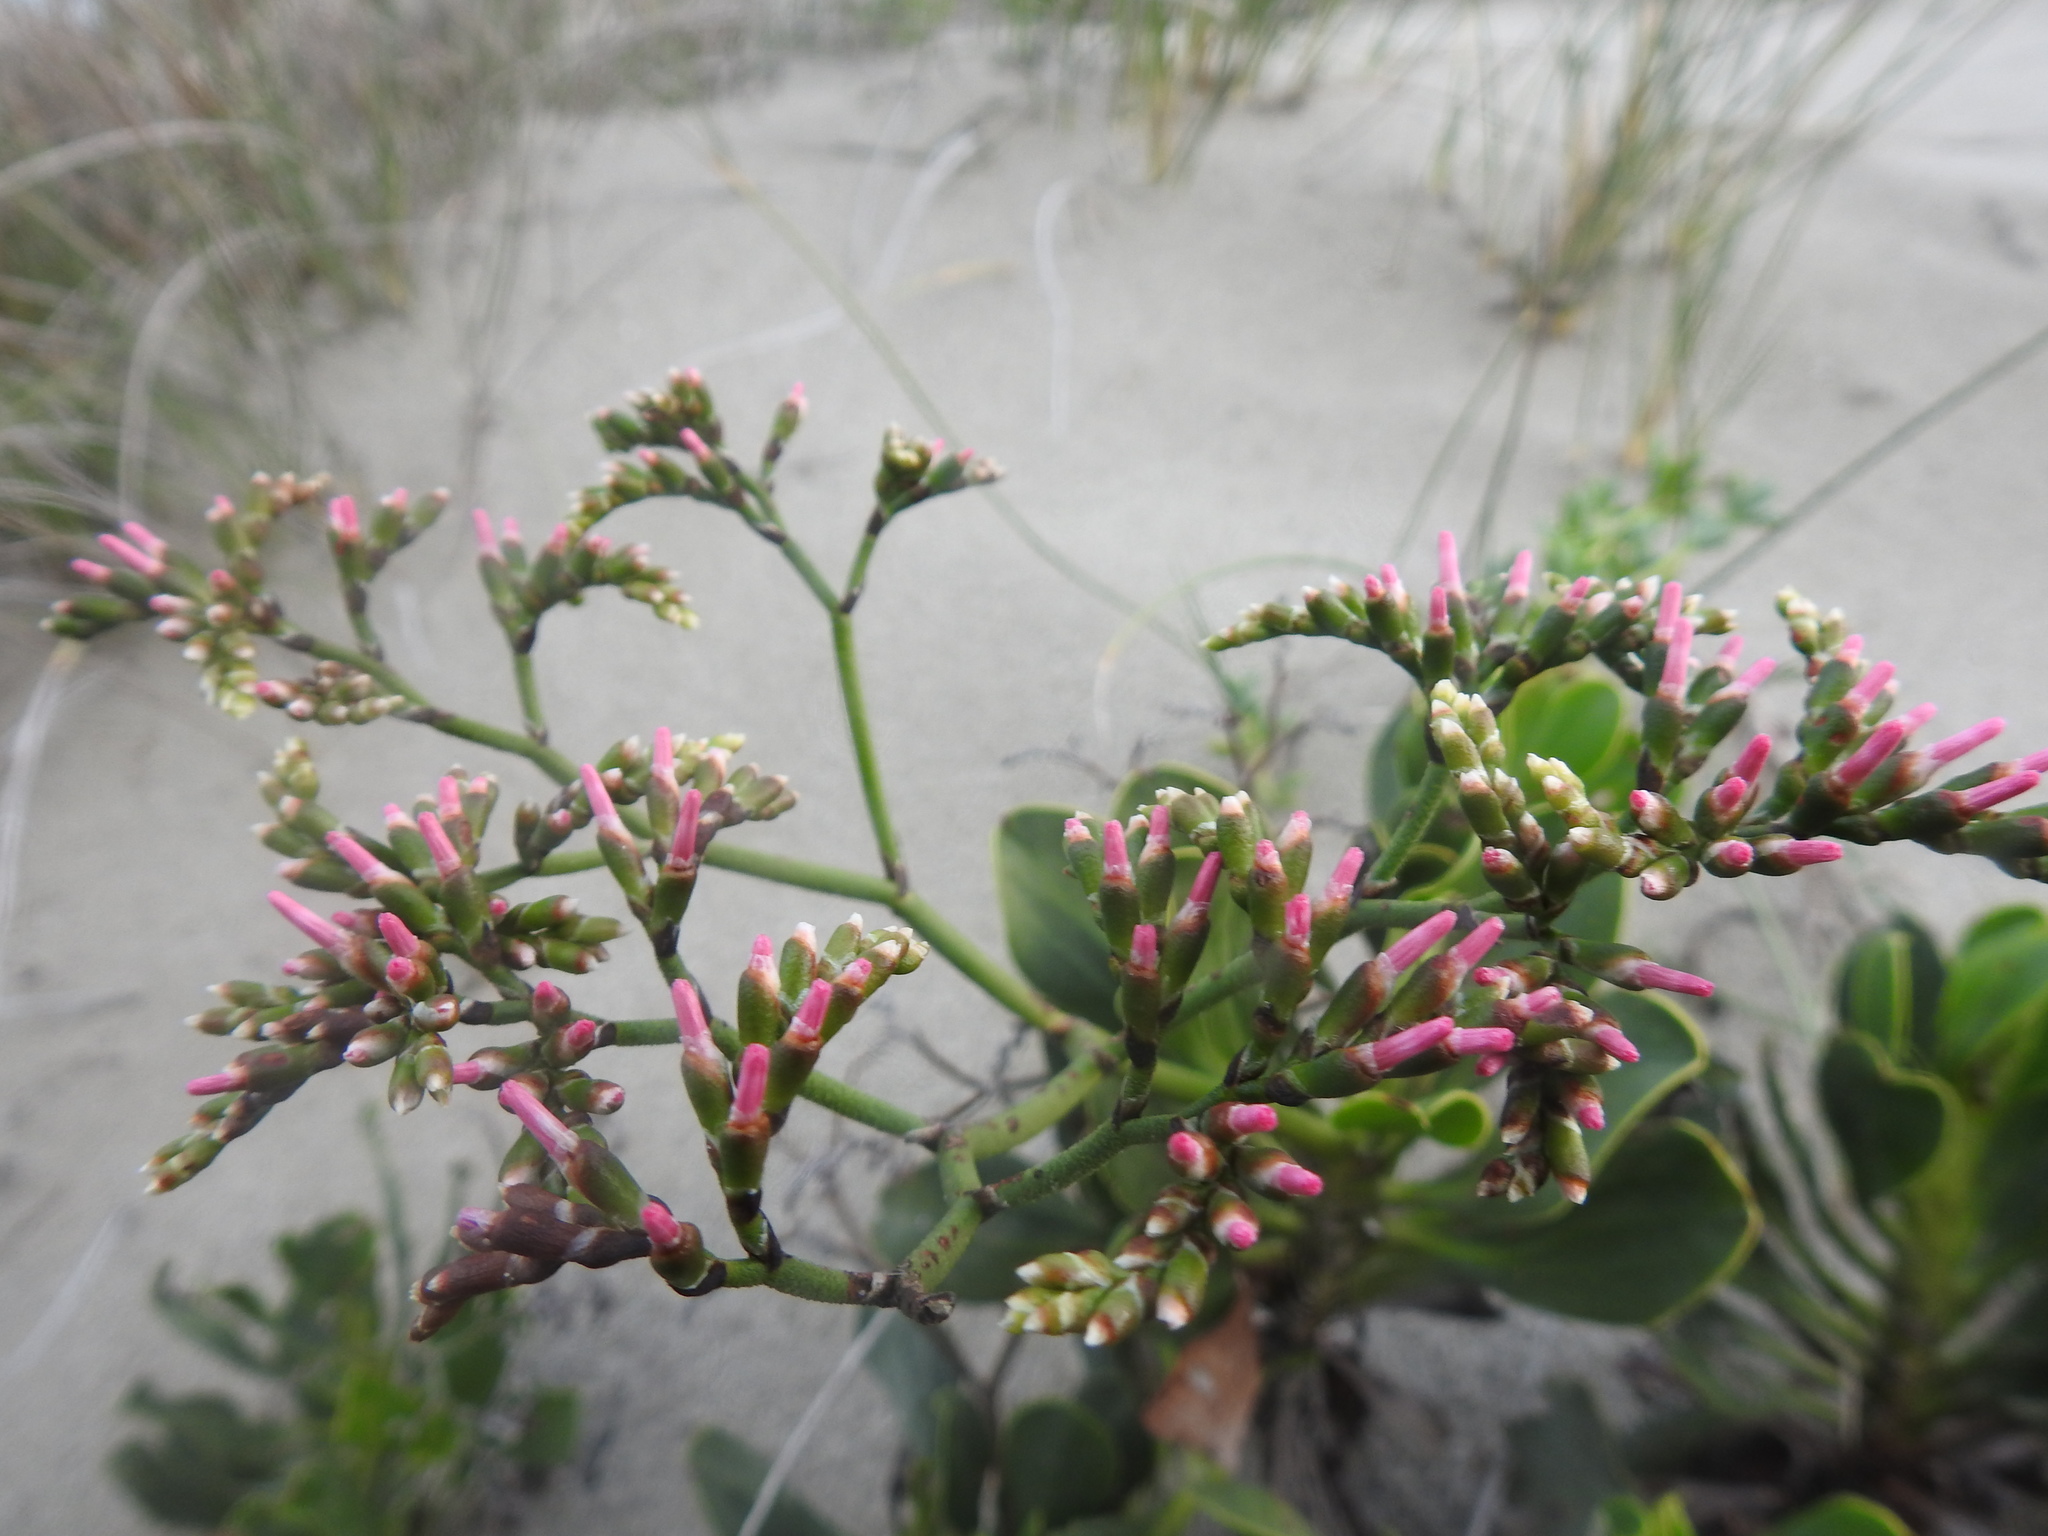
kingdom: Plantae
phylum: Tracheophyta
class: Magnoliopsida
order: Caryophyllales
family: Plumbaginaceae
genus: Limonium
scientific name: Limonium peregrinum
